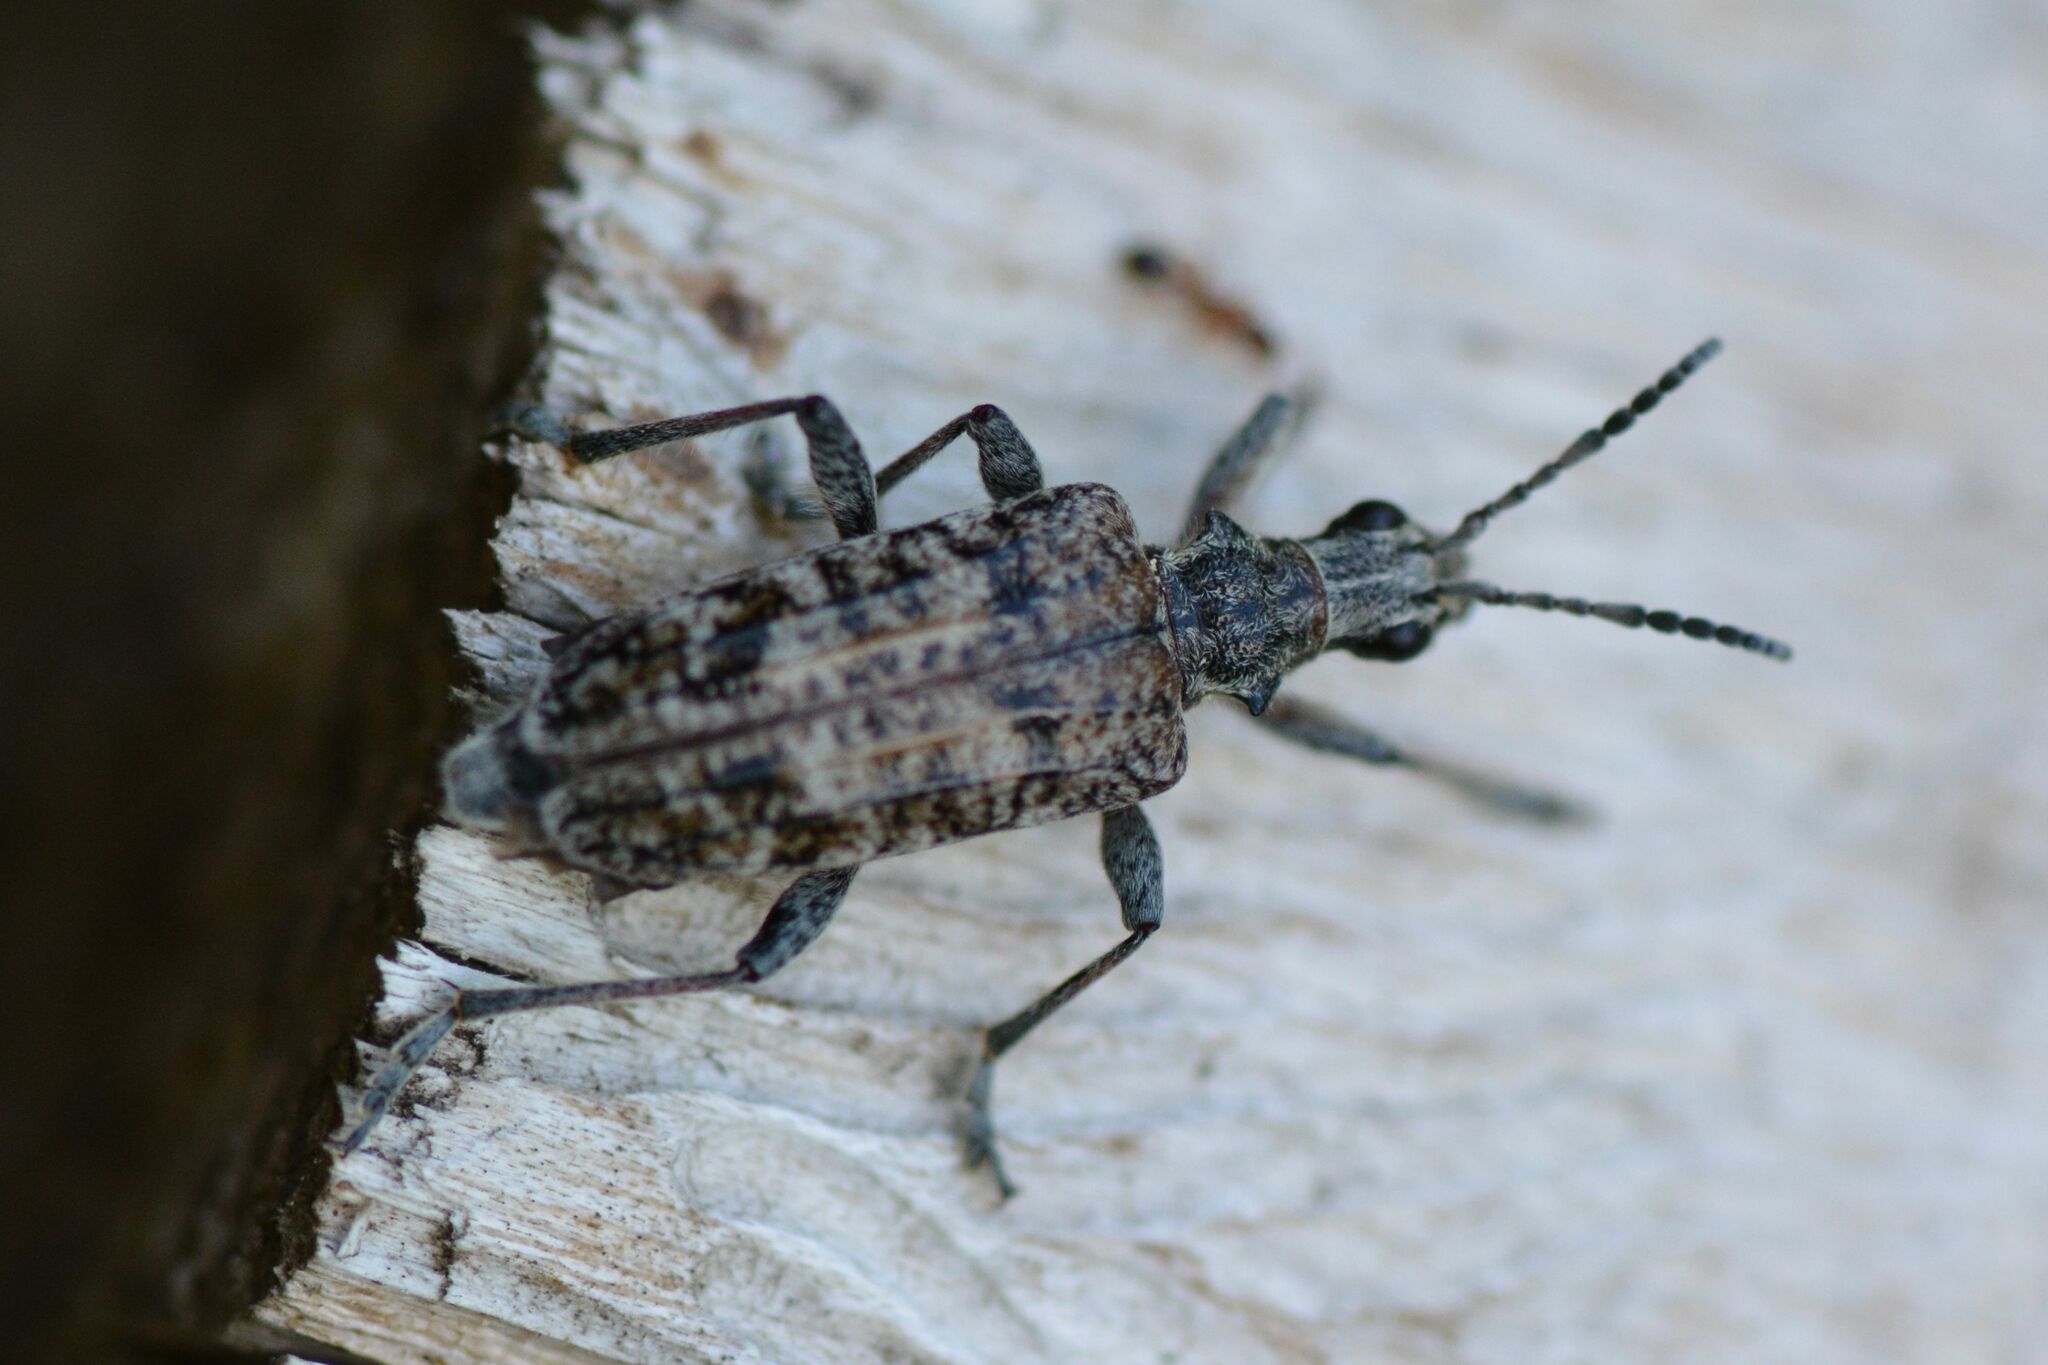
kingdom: Animalia
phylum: Arthropoda
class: Insecta
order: Coleoptera
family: Cerambycidae
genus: Rhagium
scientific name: Rhagium inquisitor
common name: Ribbed pine borer
